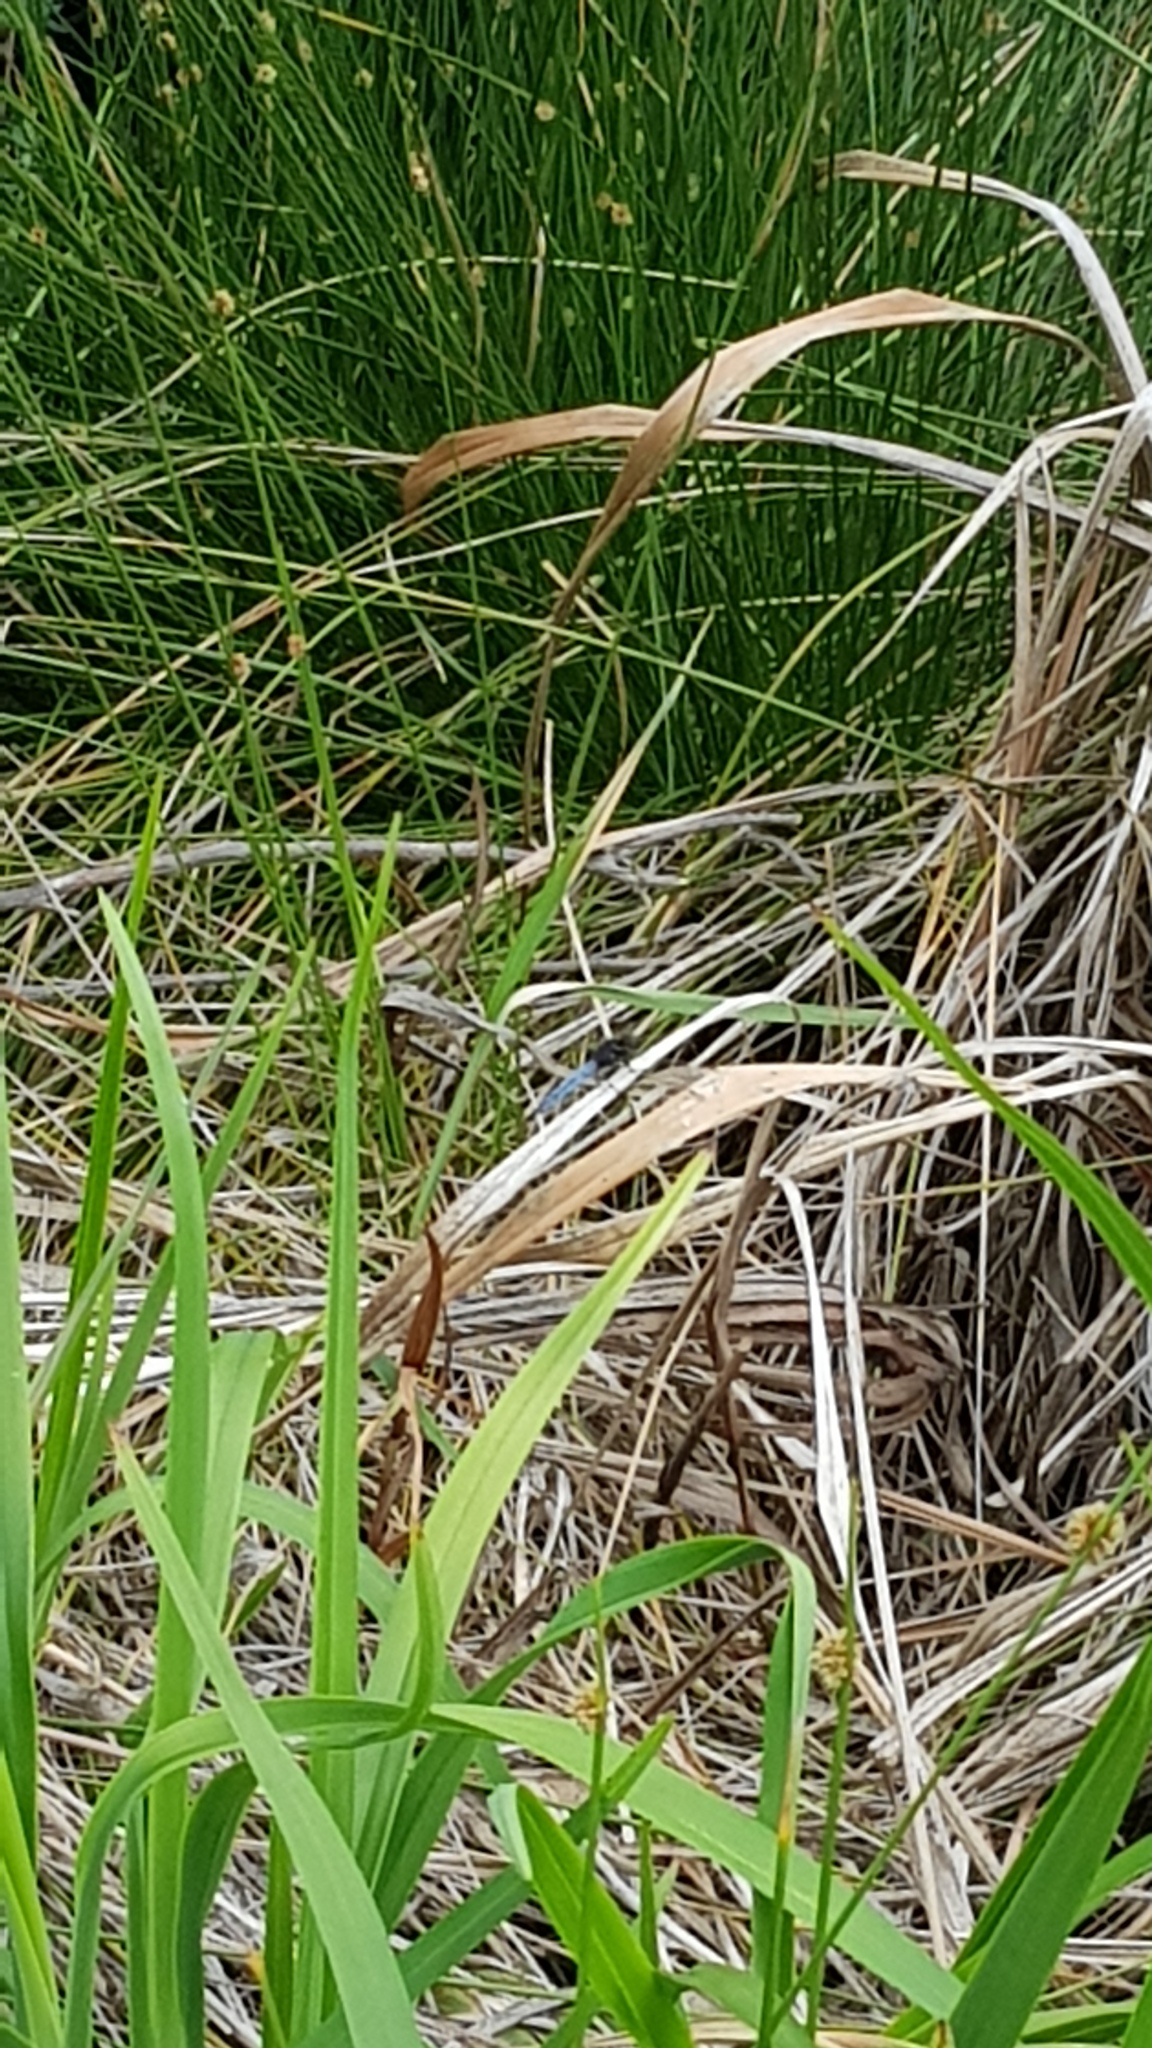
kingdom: Animalia
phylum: Arthropoda
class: Insecta
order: Odonata
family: Libellulidae
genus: Crocothemis
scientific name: Crocothemis nigrifrons
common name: Black-headed skimmer
